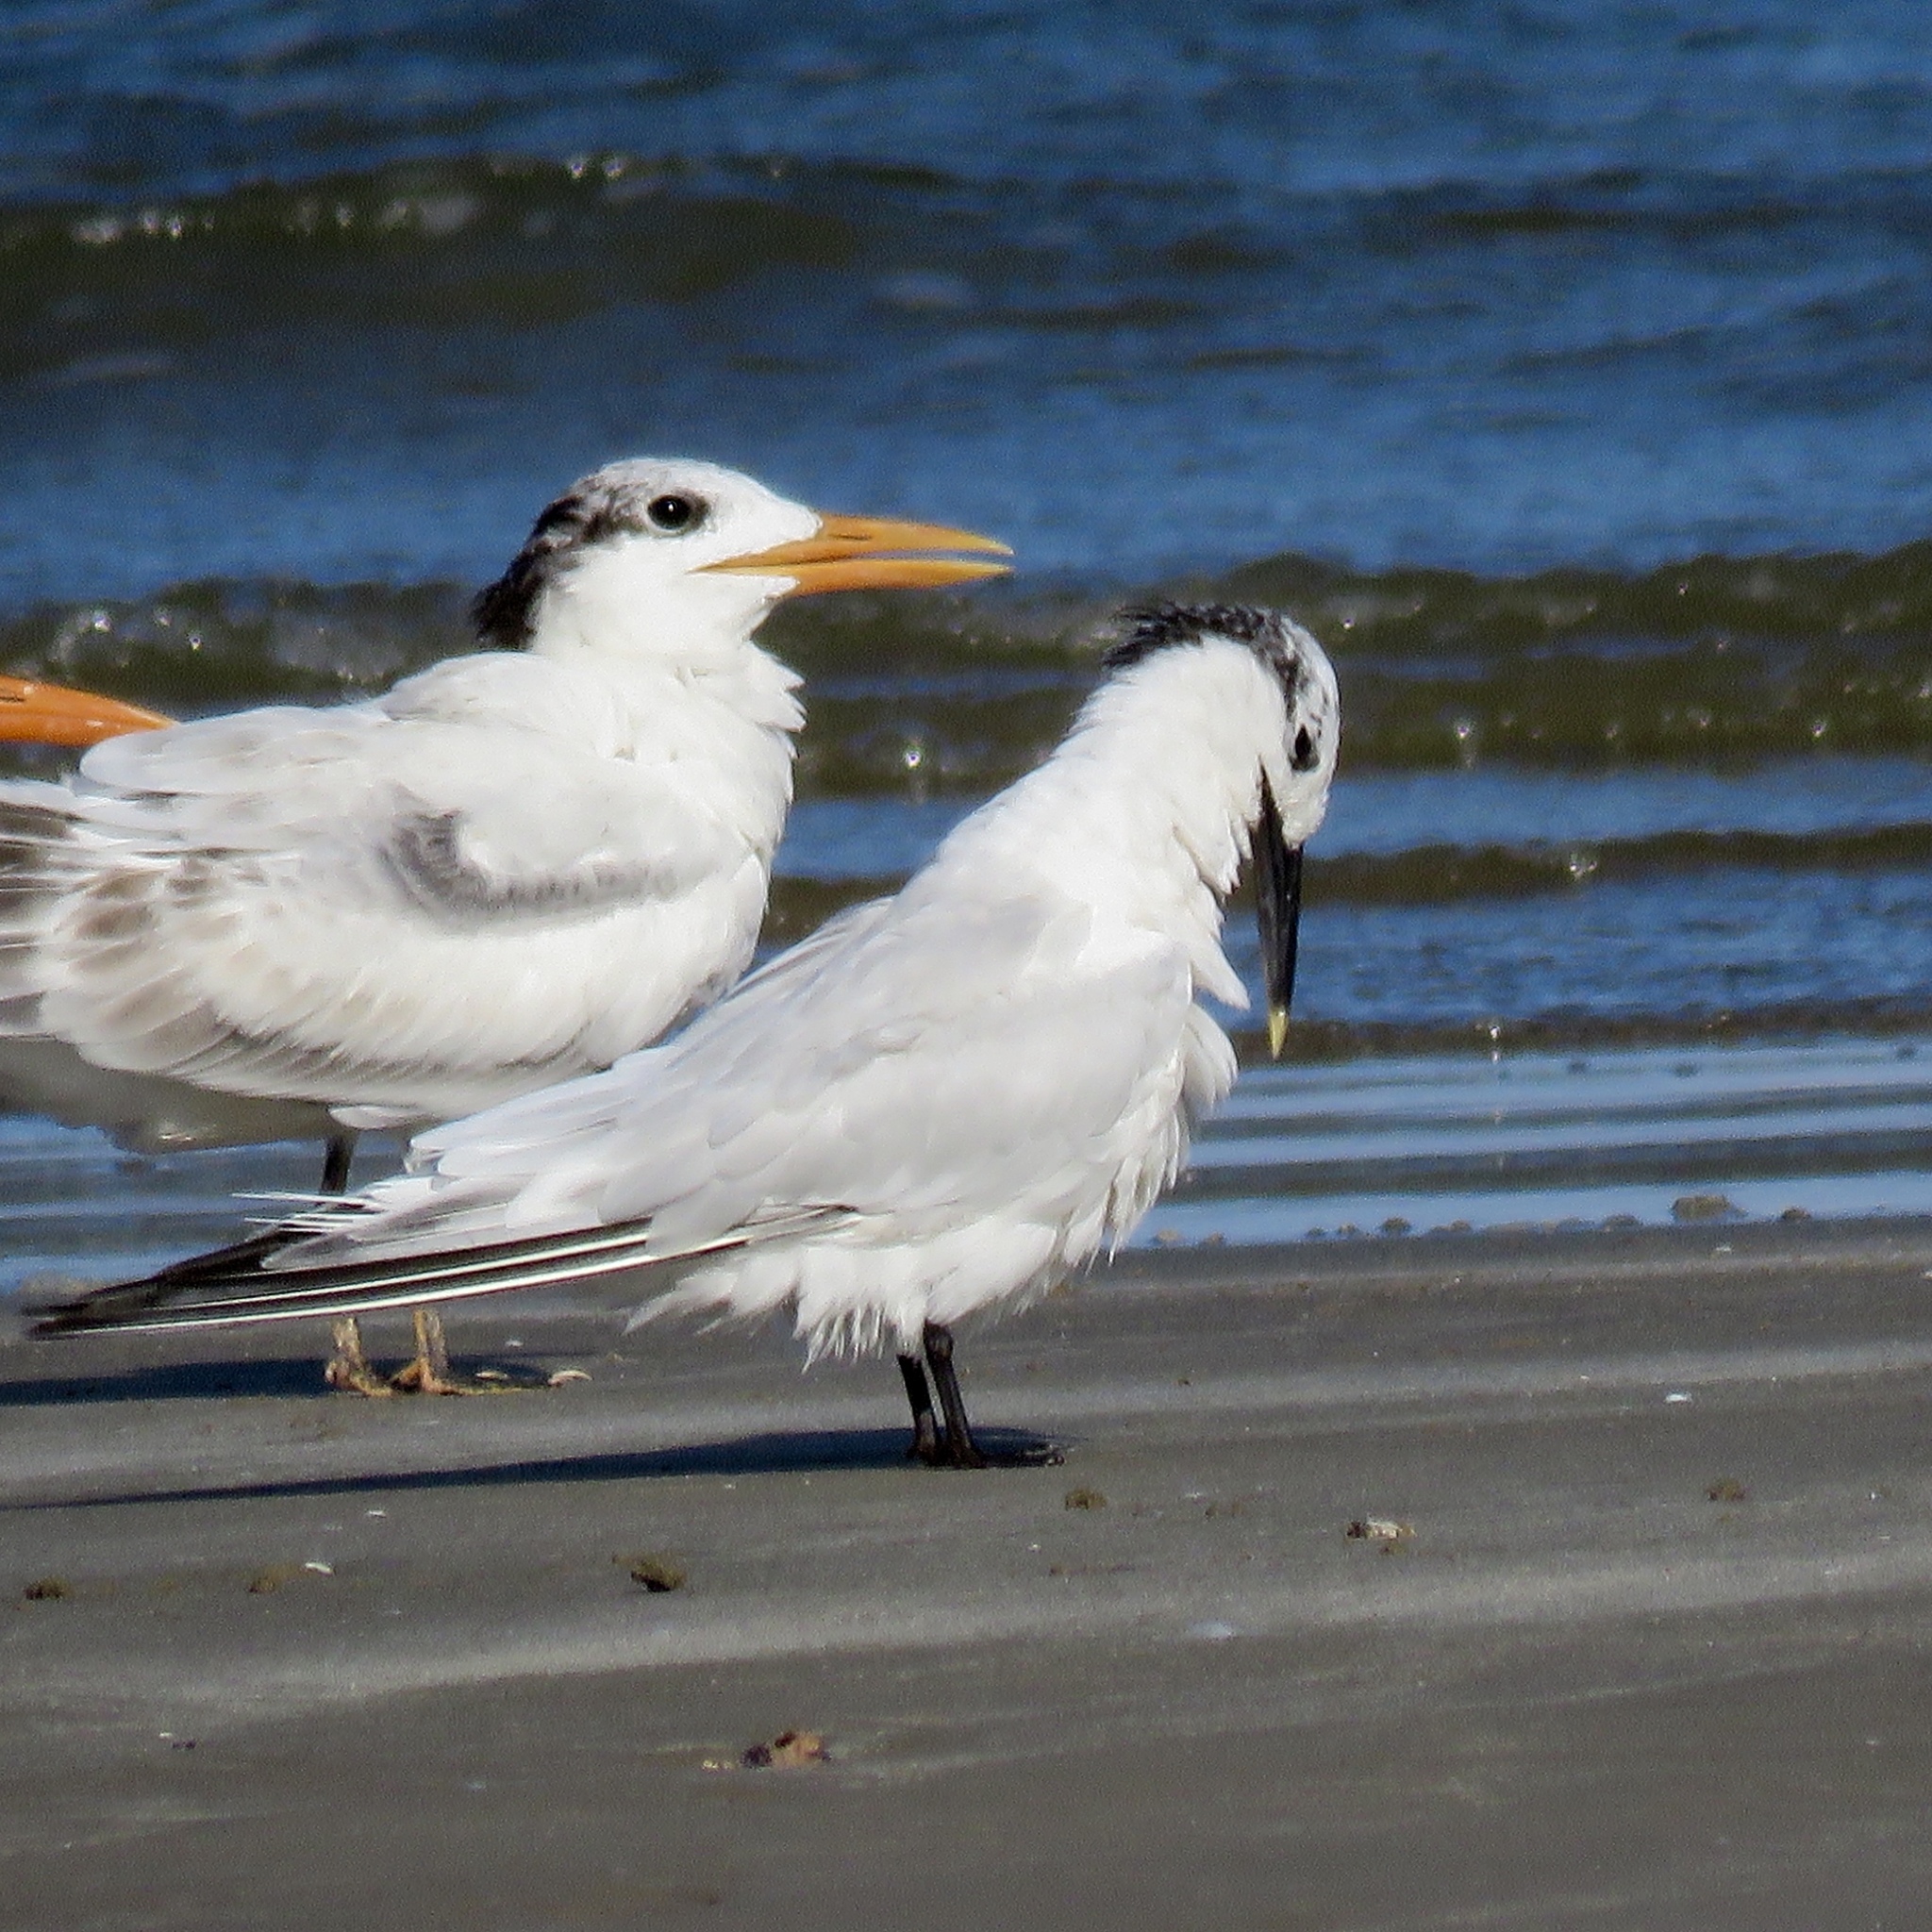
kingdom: Animalia
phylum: Chordata
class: Aves
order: Charadriiformes
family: Laridae
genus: Thalasseus
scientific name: Thalasseus sandvicensis
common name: Sandwich tern
